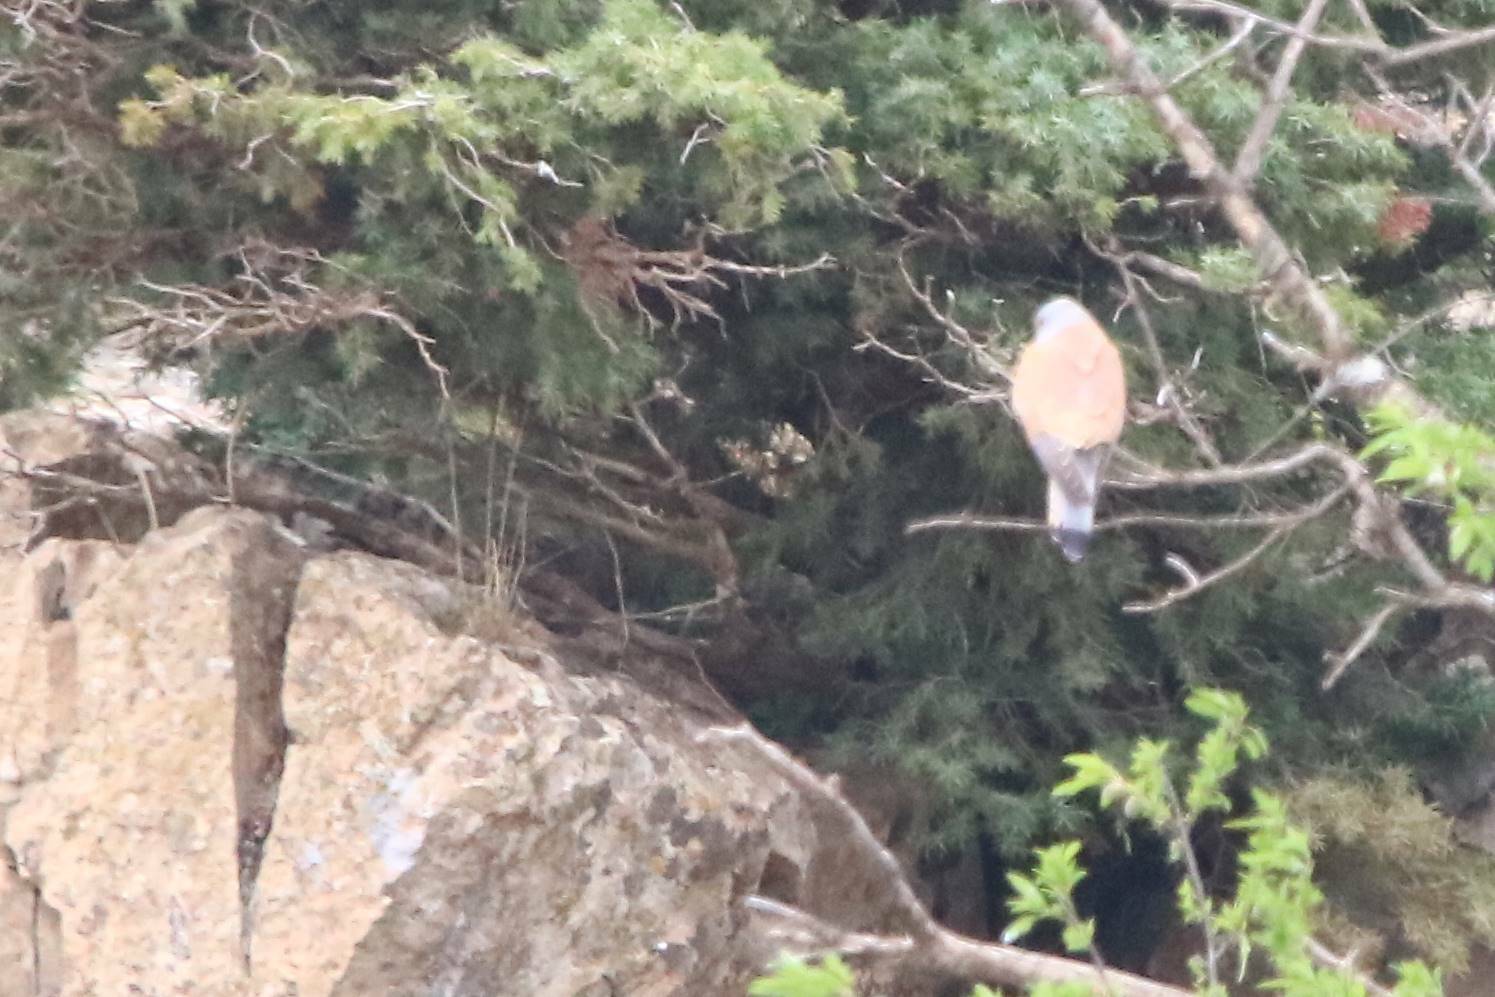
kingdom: Animalia
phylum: Chordata
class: Aves
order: Falconiformes
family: Falconidae
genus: Falco
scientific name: Falco naumanni
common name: Lesser kestrel
